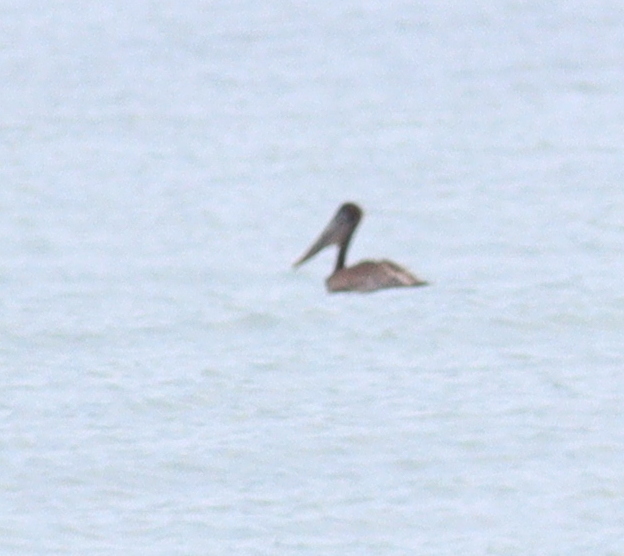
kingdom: Animalia
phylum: Chordata
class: Aves
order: Pelecaniformes
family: Pelecanidae
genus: Pelecanus
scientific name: Pelecanus occidentalis
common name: Brown pelican
